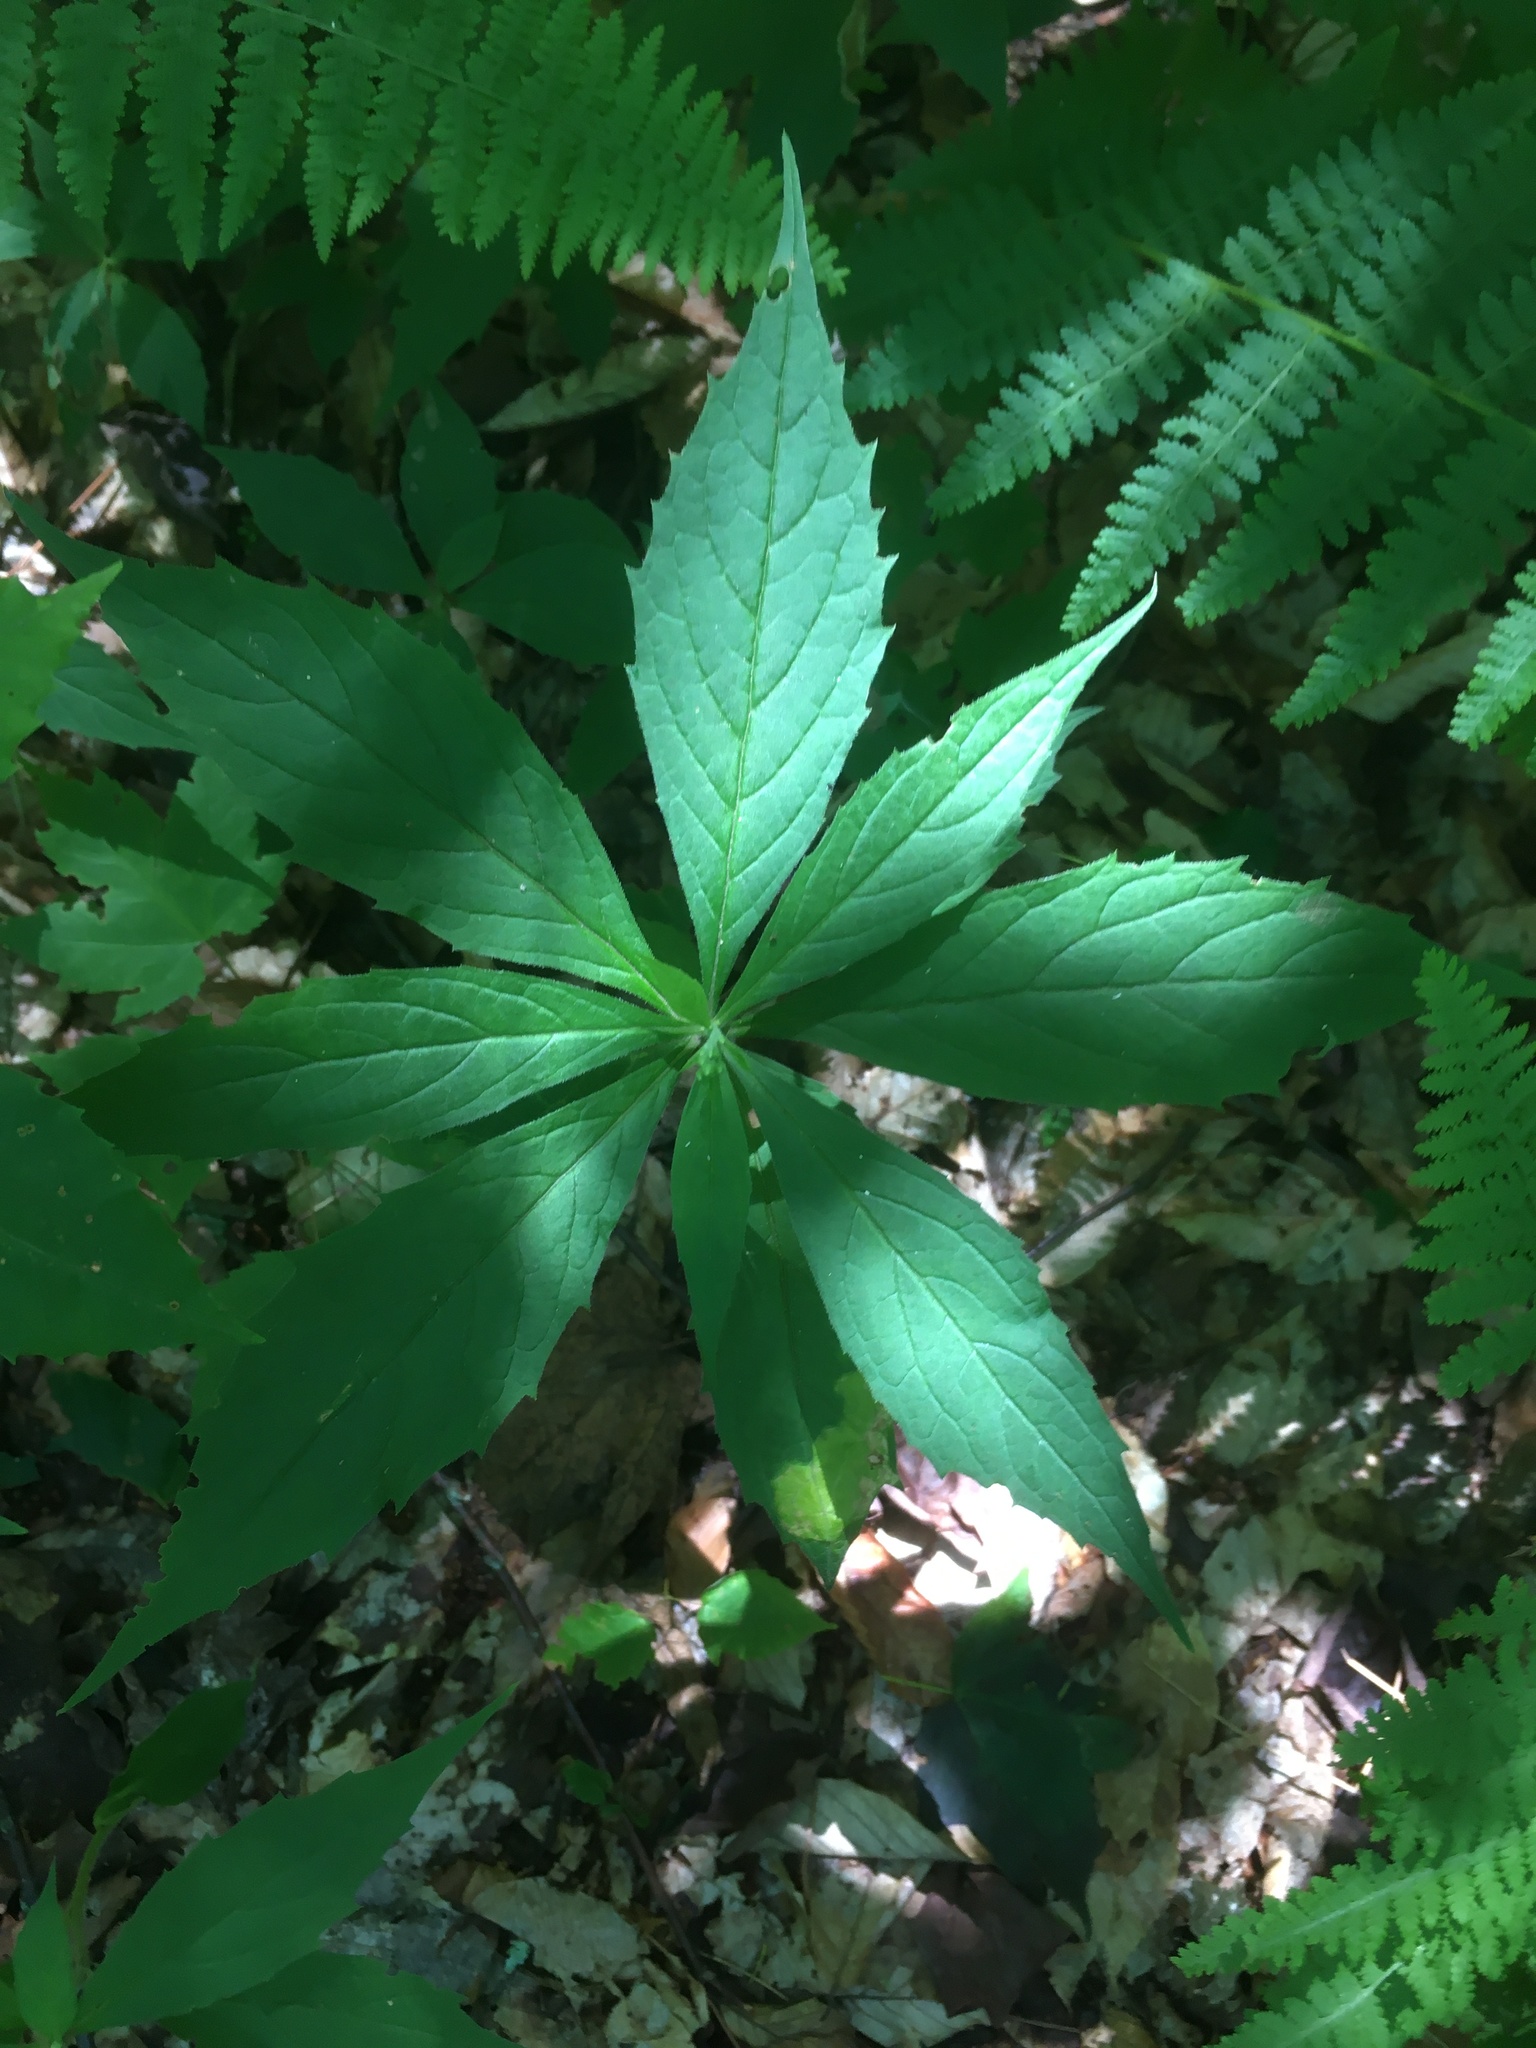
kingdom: Plantae
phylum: Tracheophyta
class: Magnoliopsida
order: Asterales
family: Asteraceae
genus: Oclemena
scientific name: Oclemena acuminata
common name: Mountain aster
